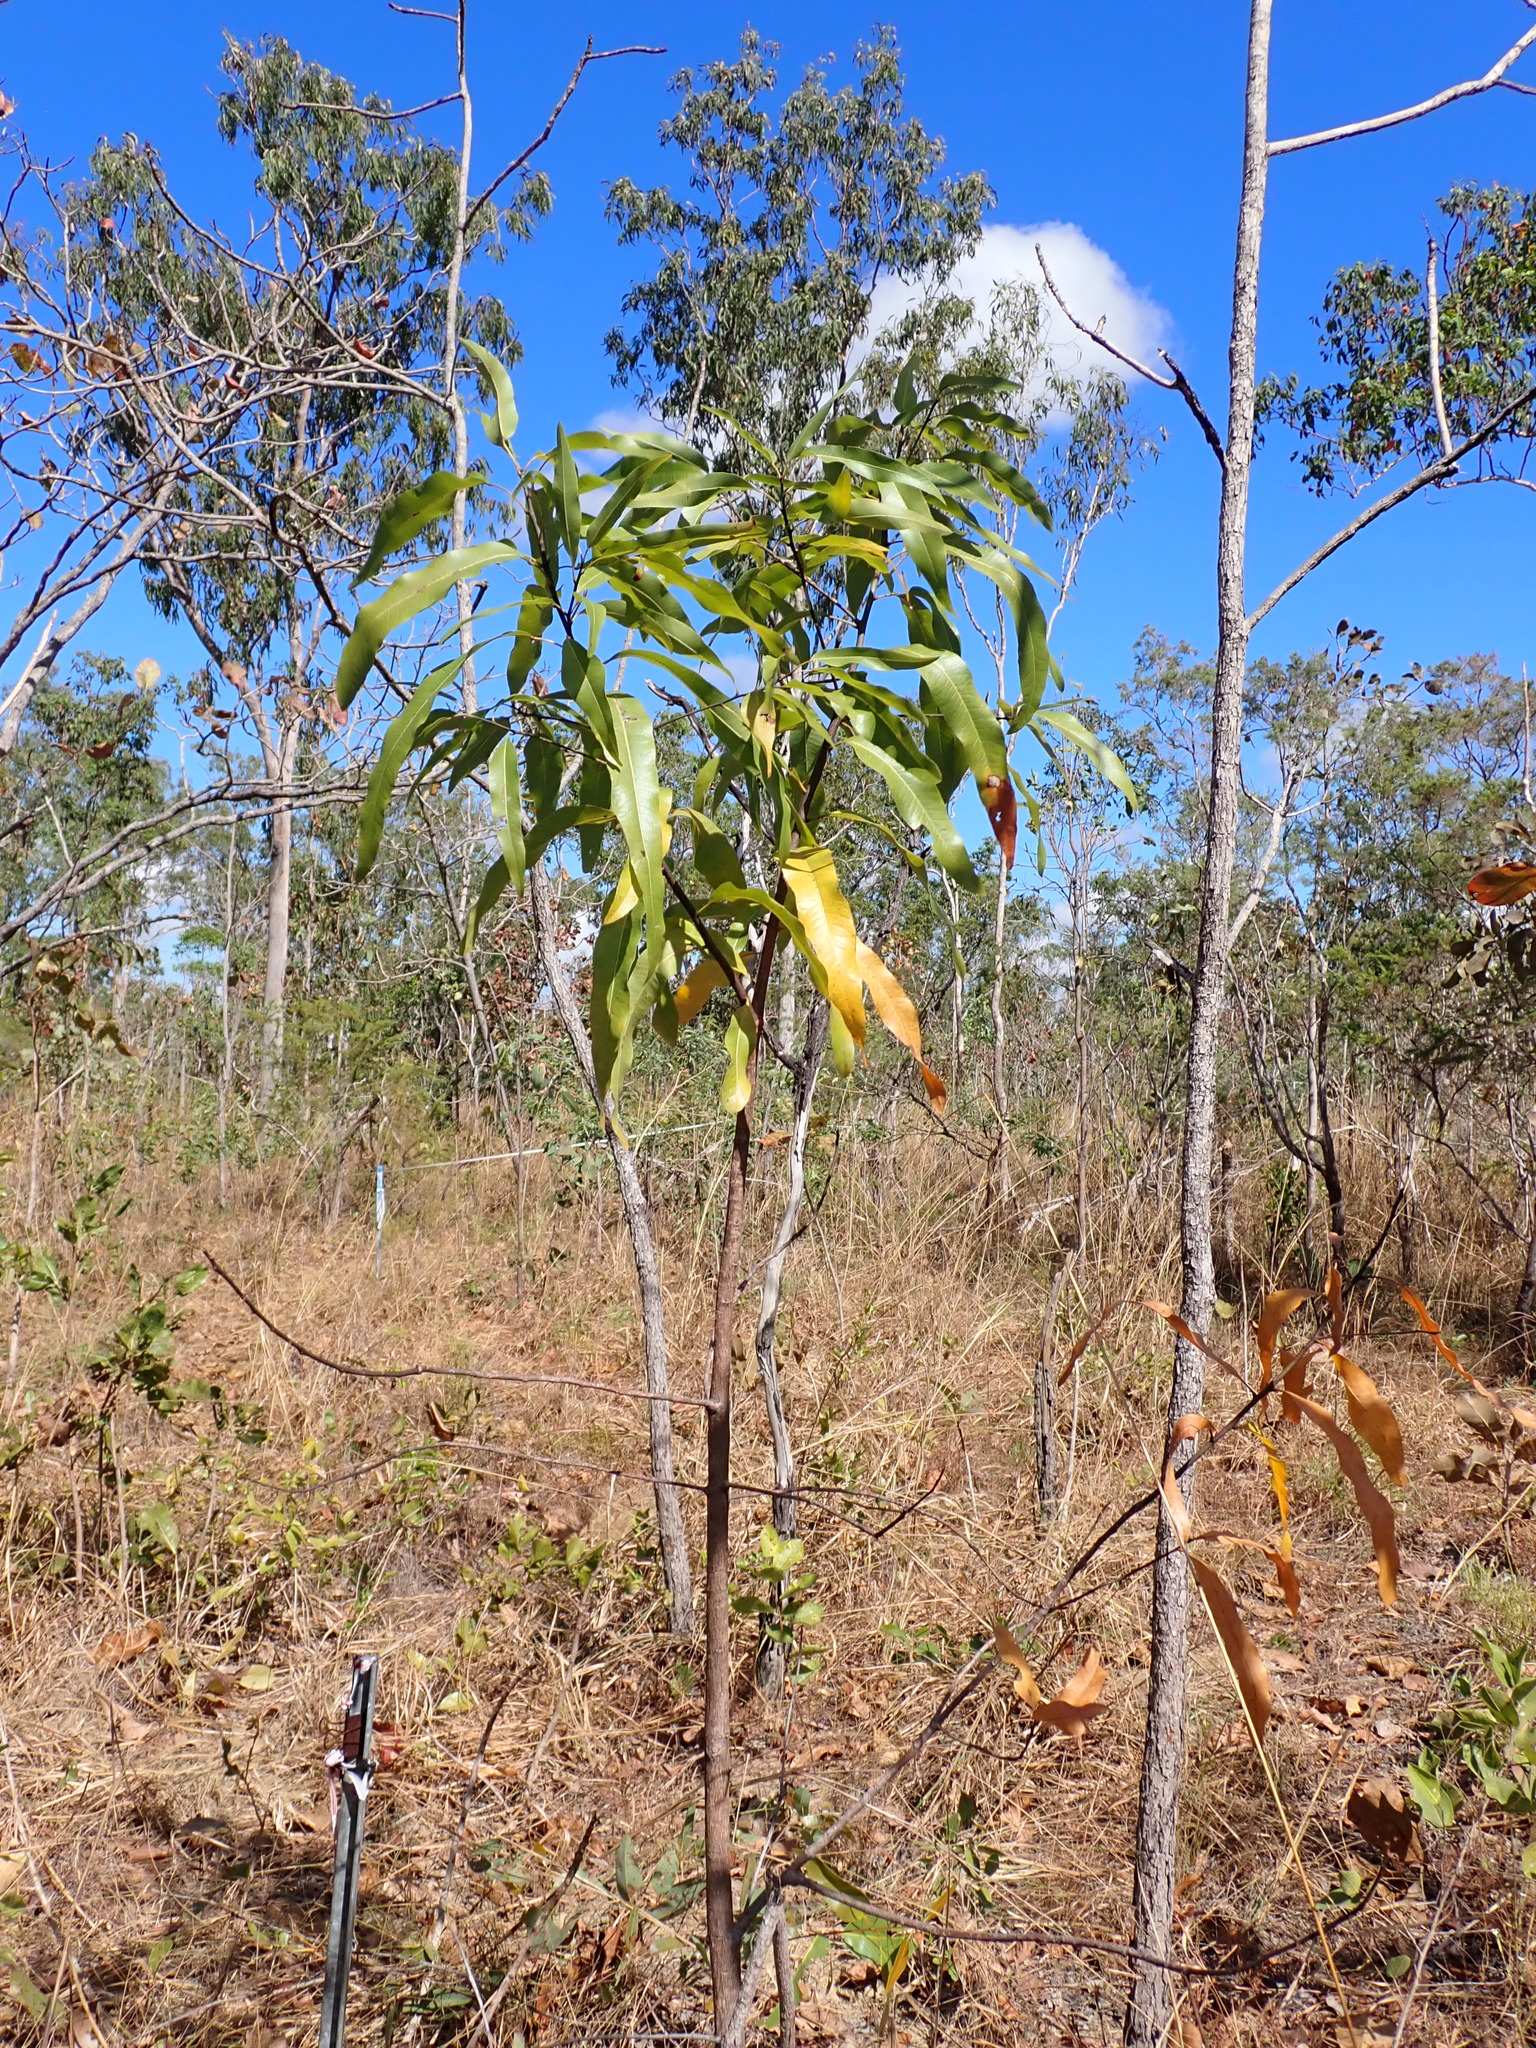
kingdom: Plantae
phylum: Tracheophyta
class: Magnoliopsida
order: Malvales
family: Malvaceae
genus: Brachychiton
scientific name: Brachychiton diversifolius
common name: Northern kurrajong
